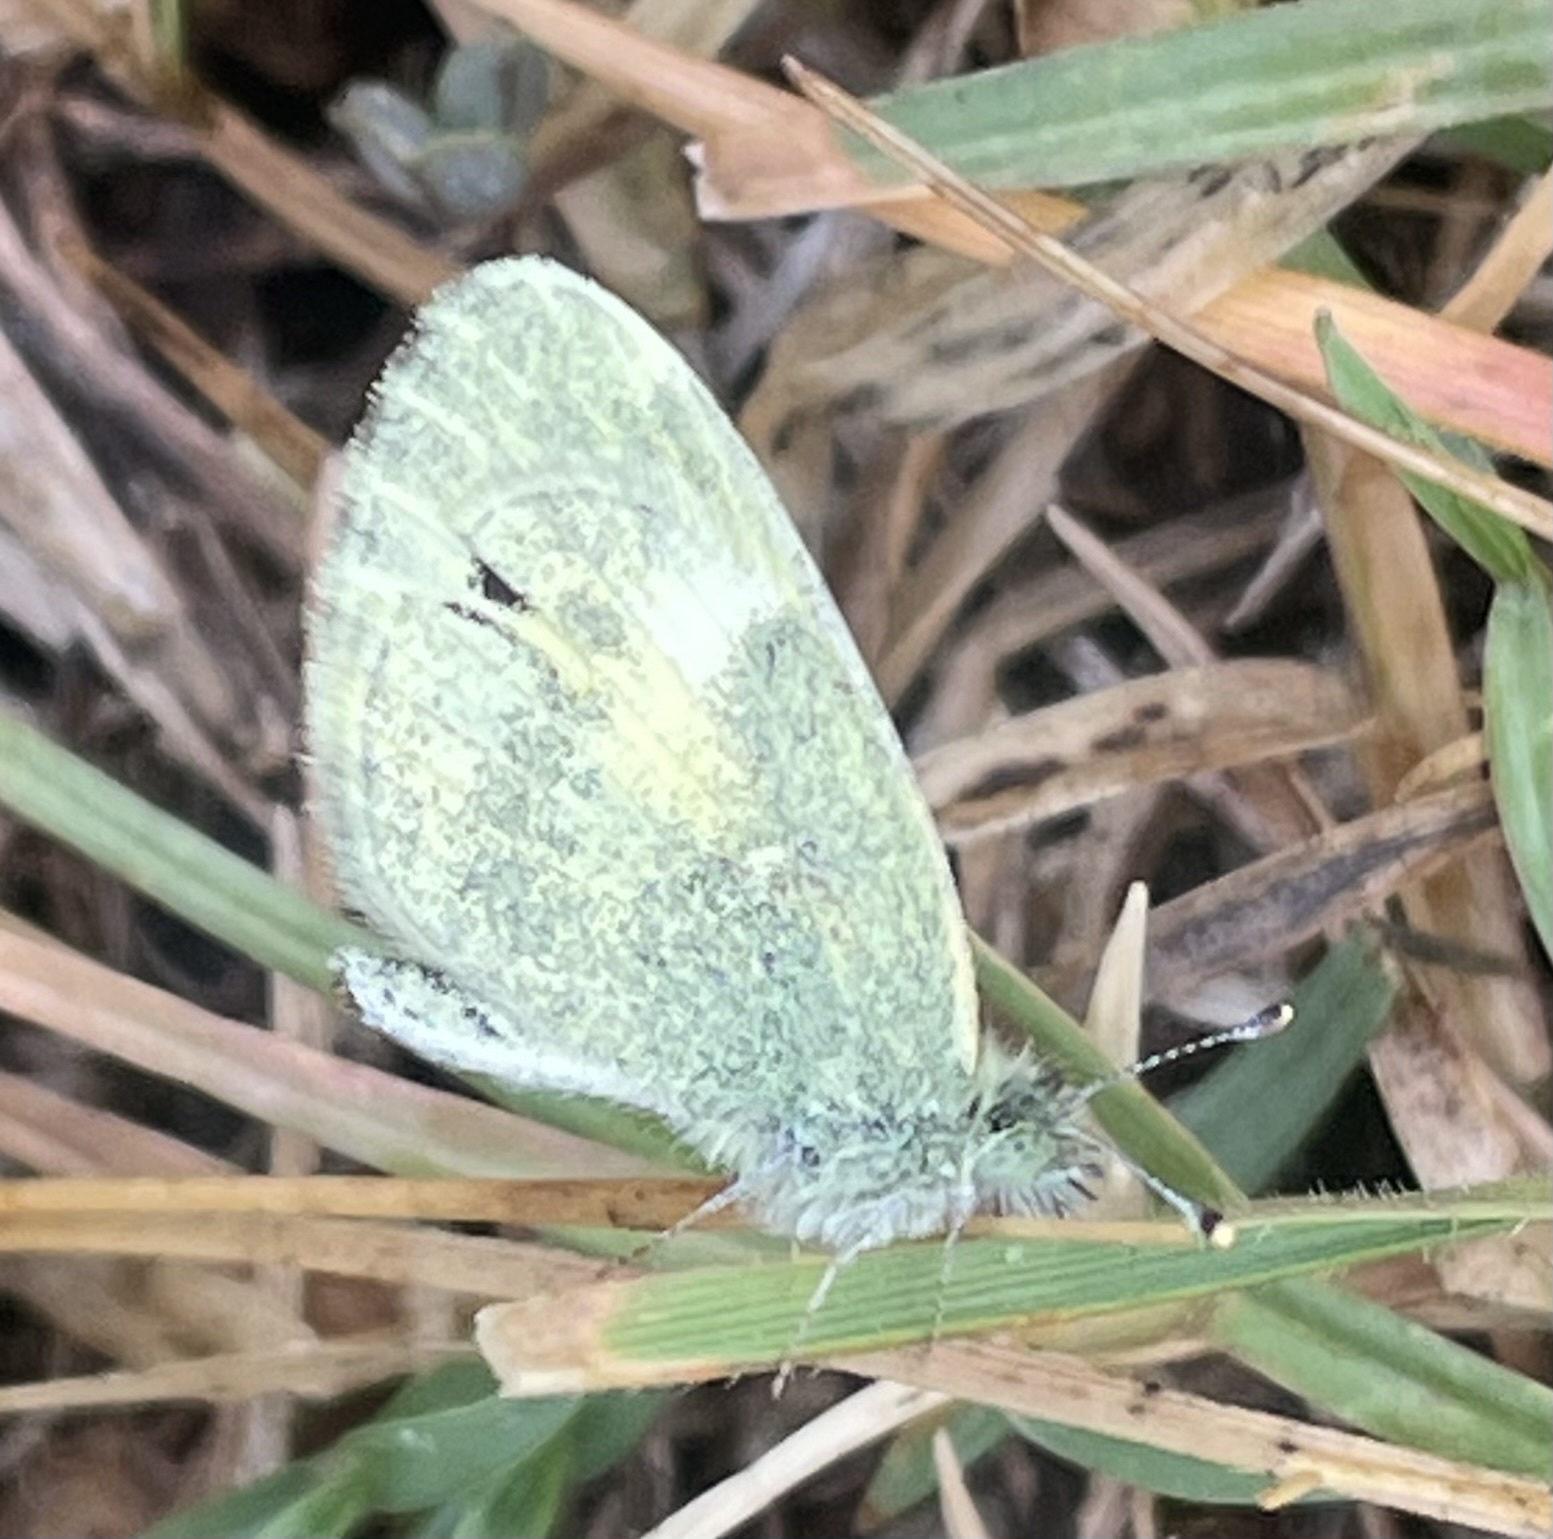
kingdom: Animalia
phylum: Arthropoda
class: Insecta
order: Lepidoptera
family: Pieridae
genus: Nathalis
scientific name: Nathalis iole
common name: Dainty sulphur
